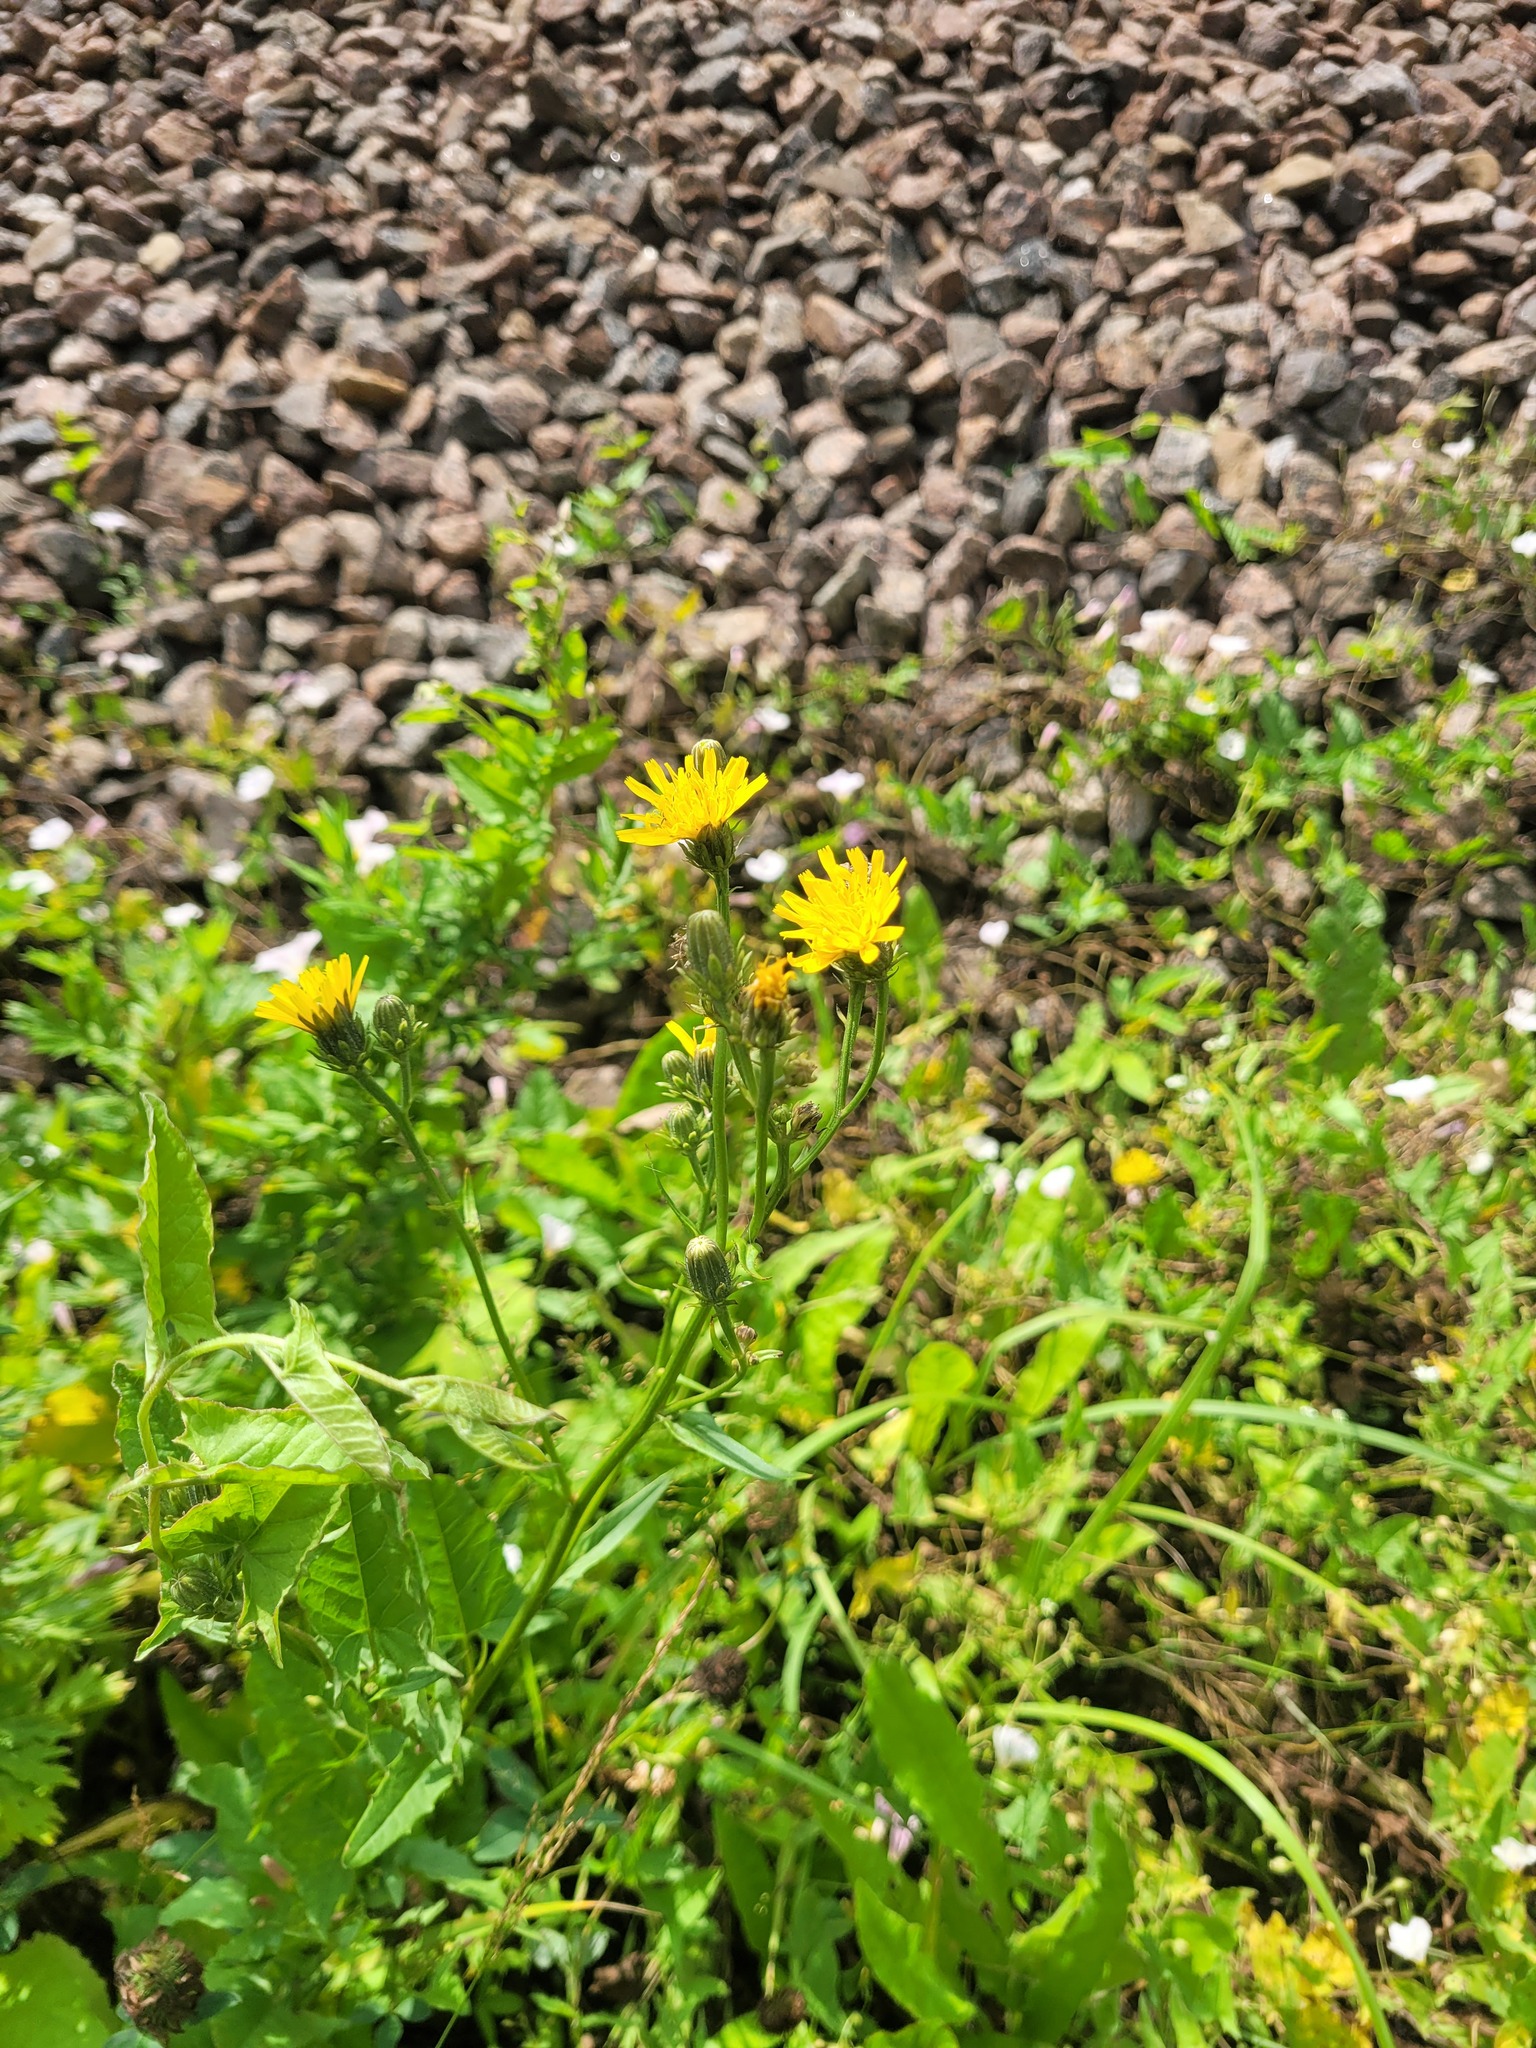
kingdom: Plantae
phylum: Tracheophyta
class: Magnoliopsida
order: Asterales
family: Asteraceae
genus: Picris
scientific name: Picris hieracioides
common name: Hawkweed oxtongue
